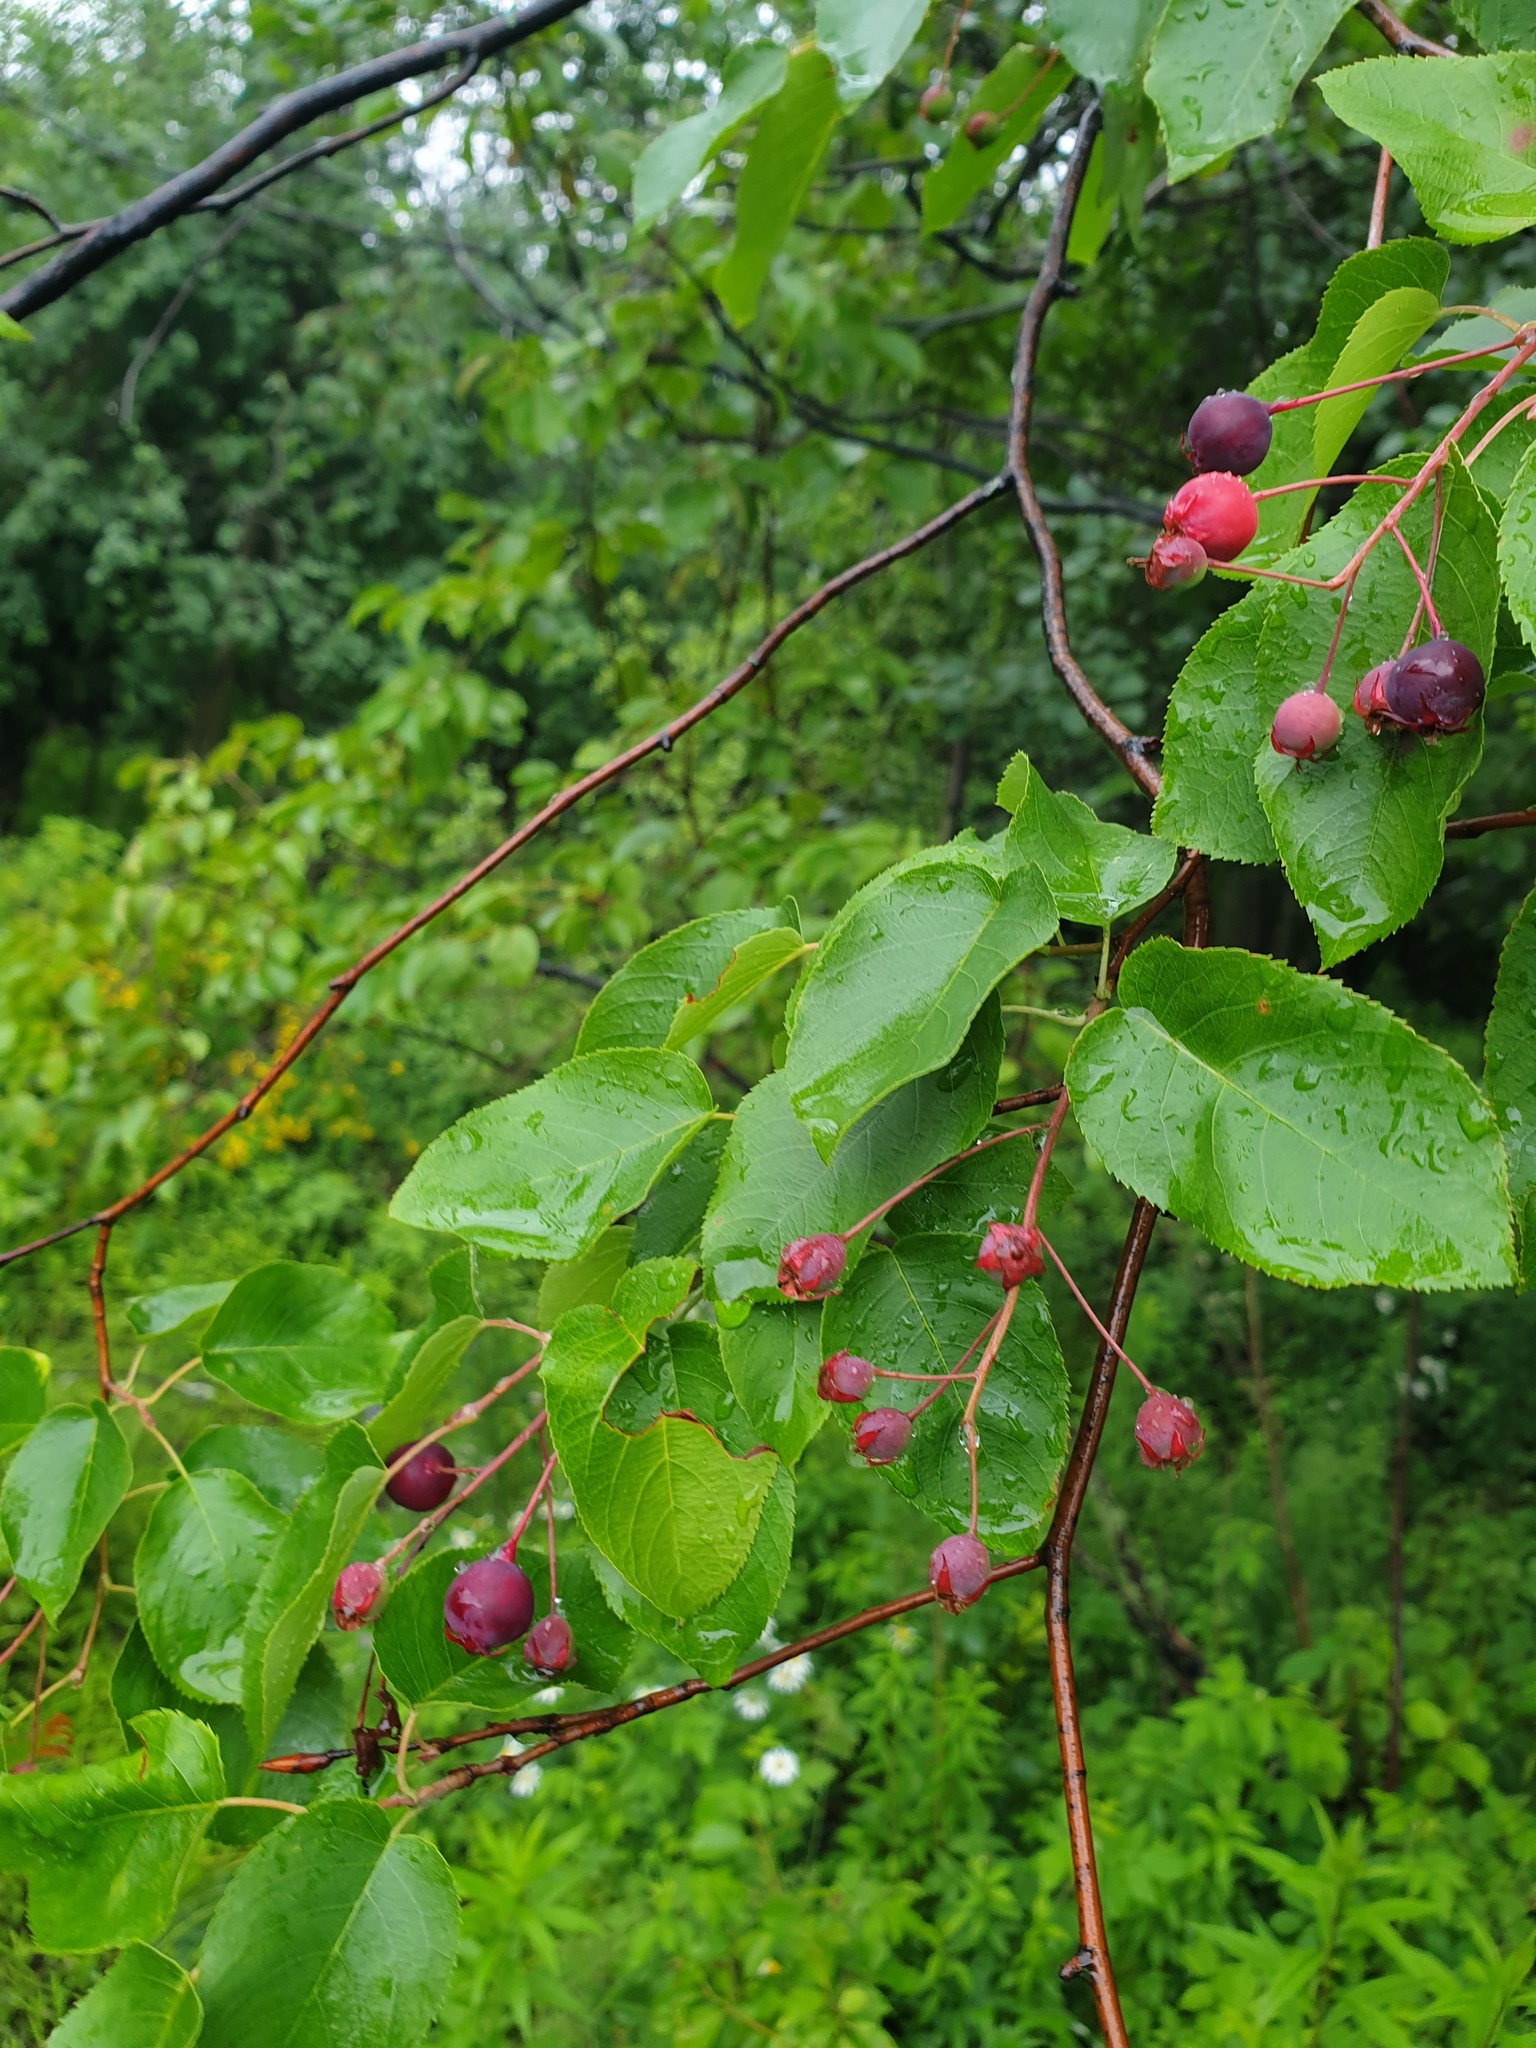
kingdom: Plantae
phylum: Tracheophyta
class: Magnoliopsida
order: Rosales
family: Rosaceae
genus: Amelanchier
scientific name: Amelanchier arborea
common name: Downy serviceberry
